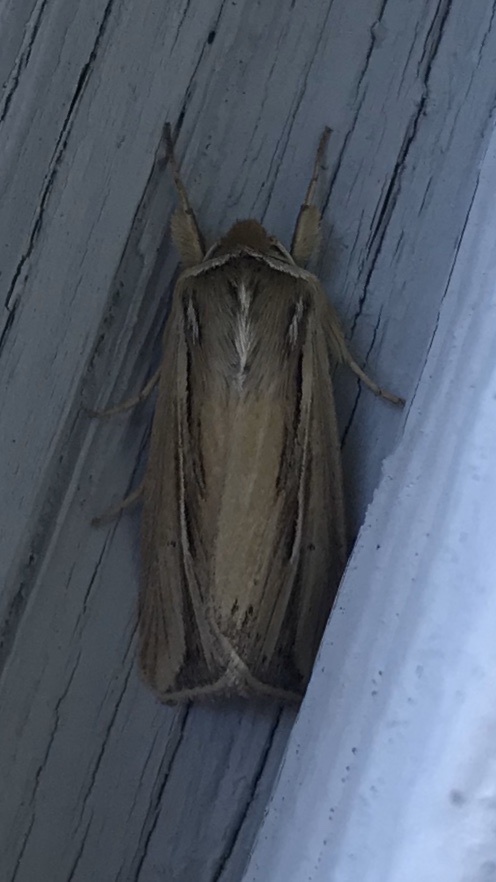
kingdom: Animalia
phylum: Arthropoda
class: Insecta
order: Lepidoptera
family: Noctuidae
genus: Dargida
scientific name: Dargida diffusa
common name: Wheat head armyworm
